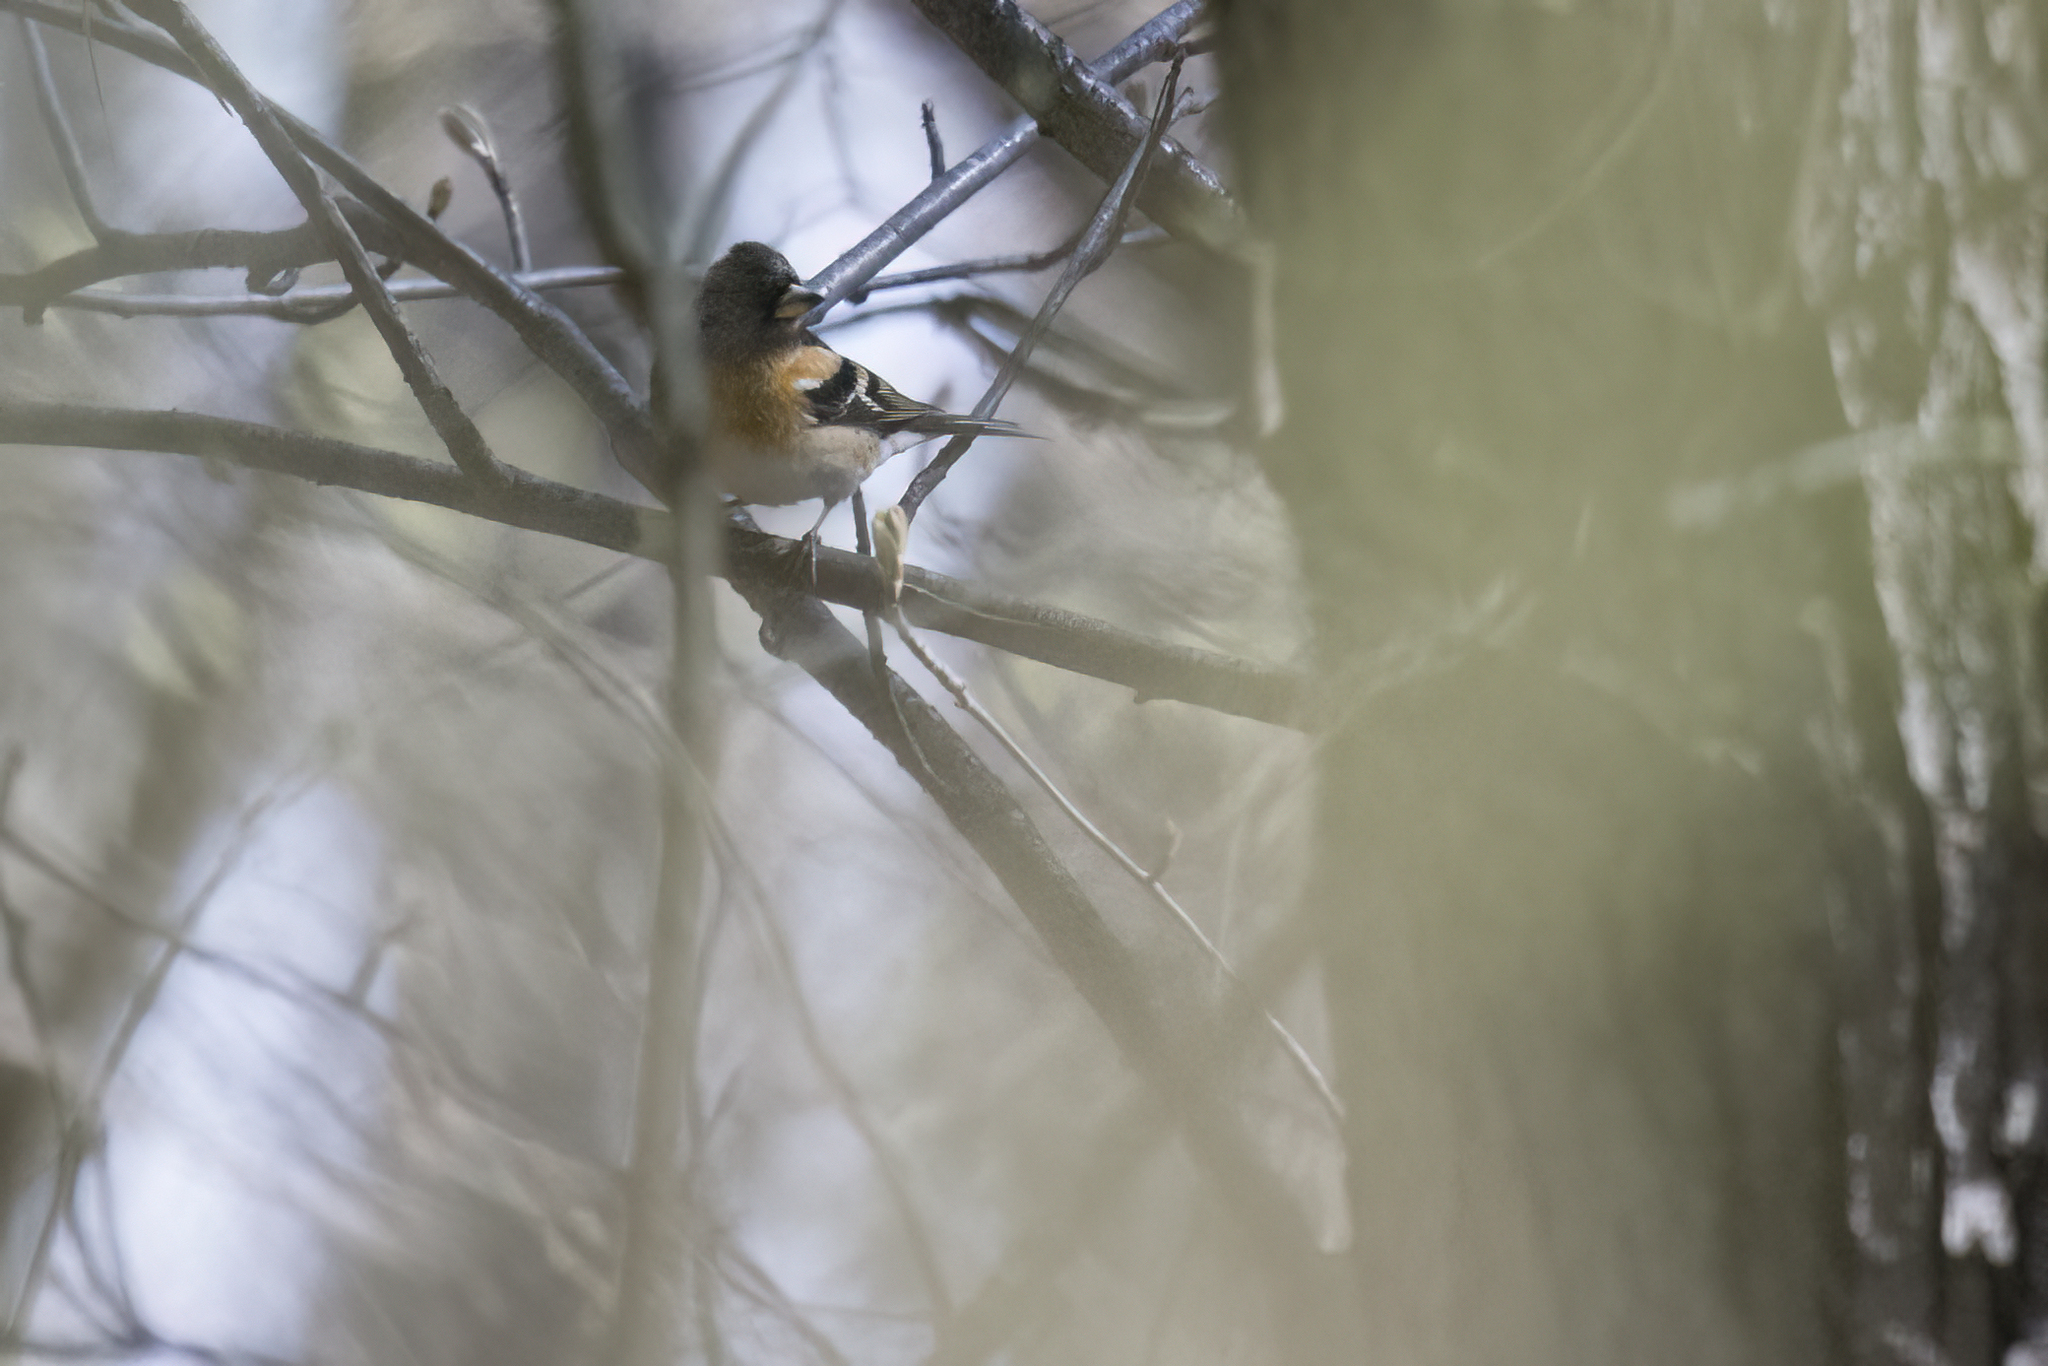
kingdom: Animalia
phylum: Chordata
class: Aves
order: Passeriformes
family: Fringillidae
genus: Fringilla
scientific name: Fringilla montifringilla
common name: Brambling
